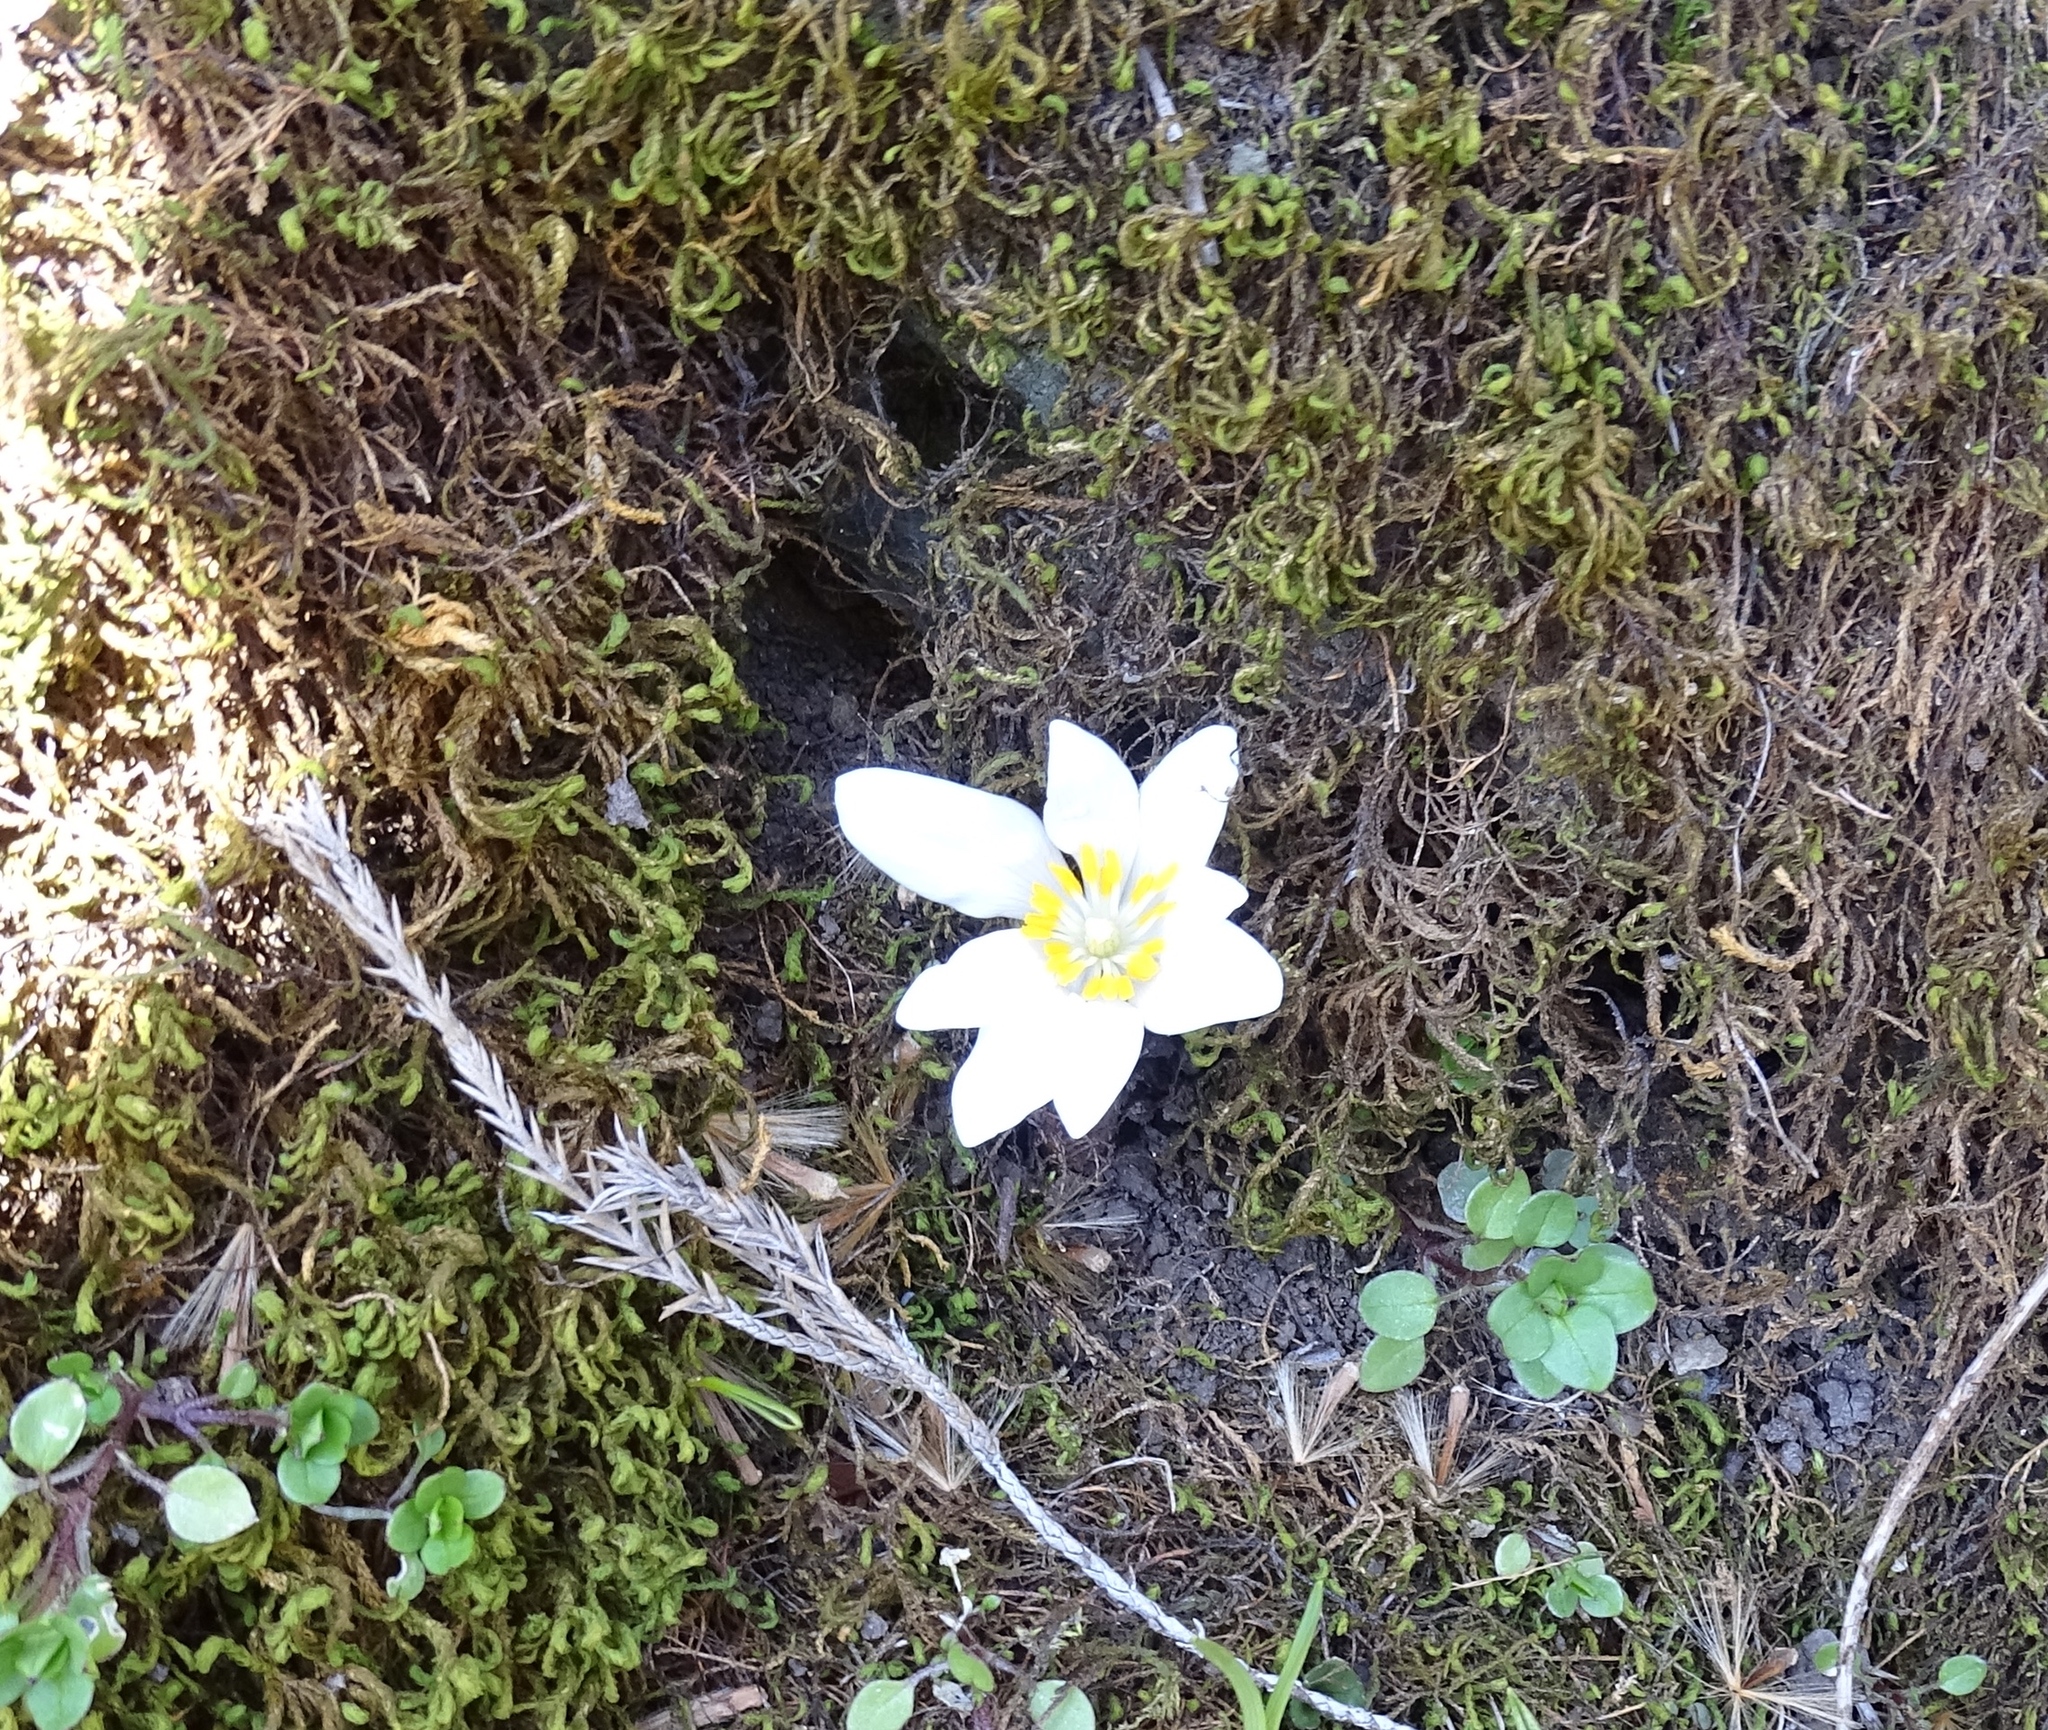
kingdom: Plantae
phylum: Tracheophyta
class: Magnoliopsida
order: Ranunculales
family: Papaveraceae
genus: Sanguinaria
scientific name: Sanguinaria canadensis
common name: Bloodroot
